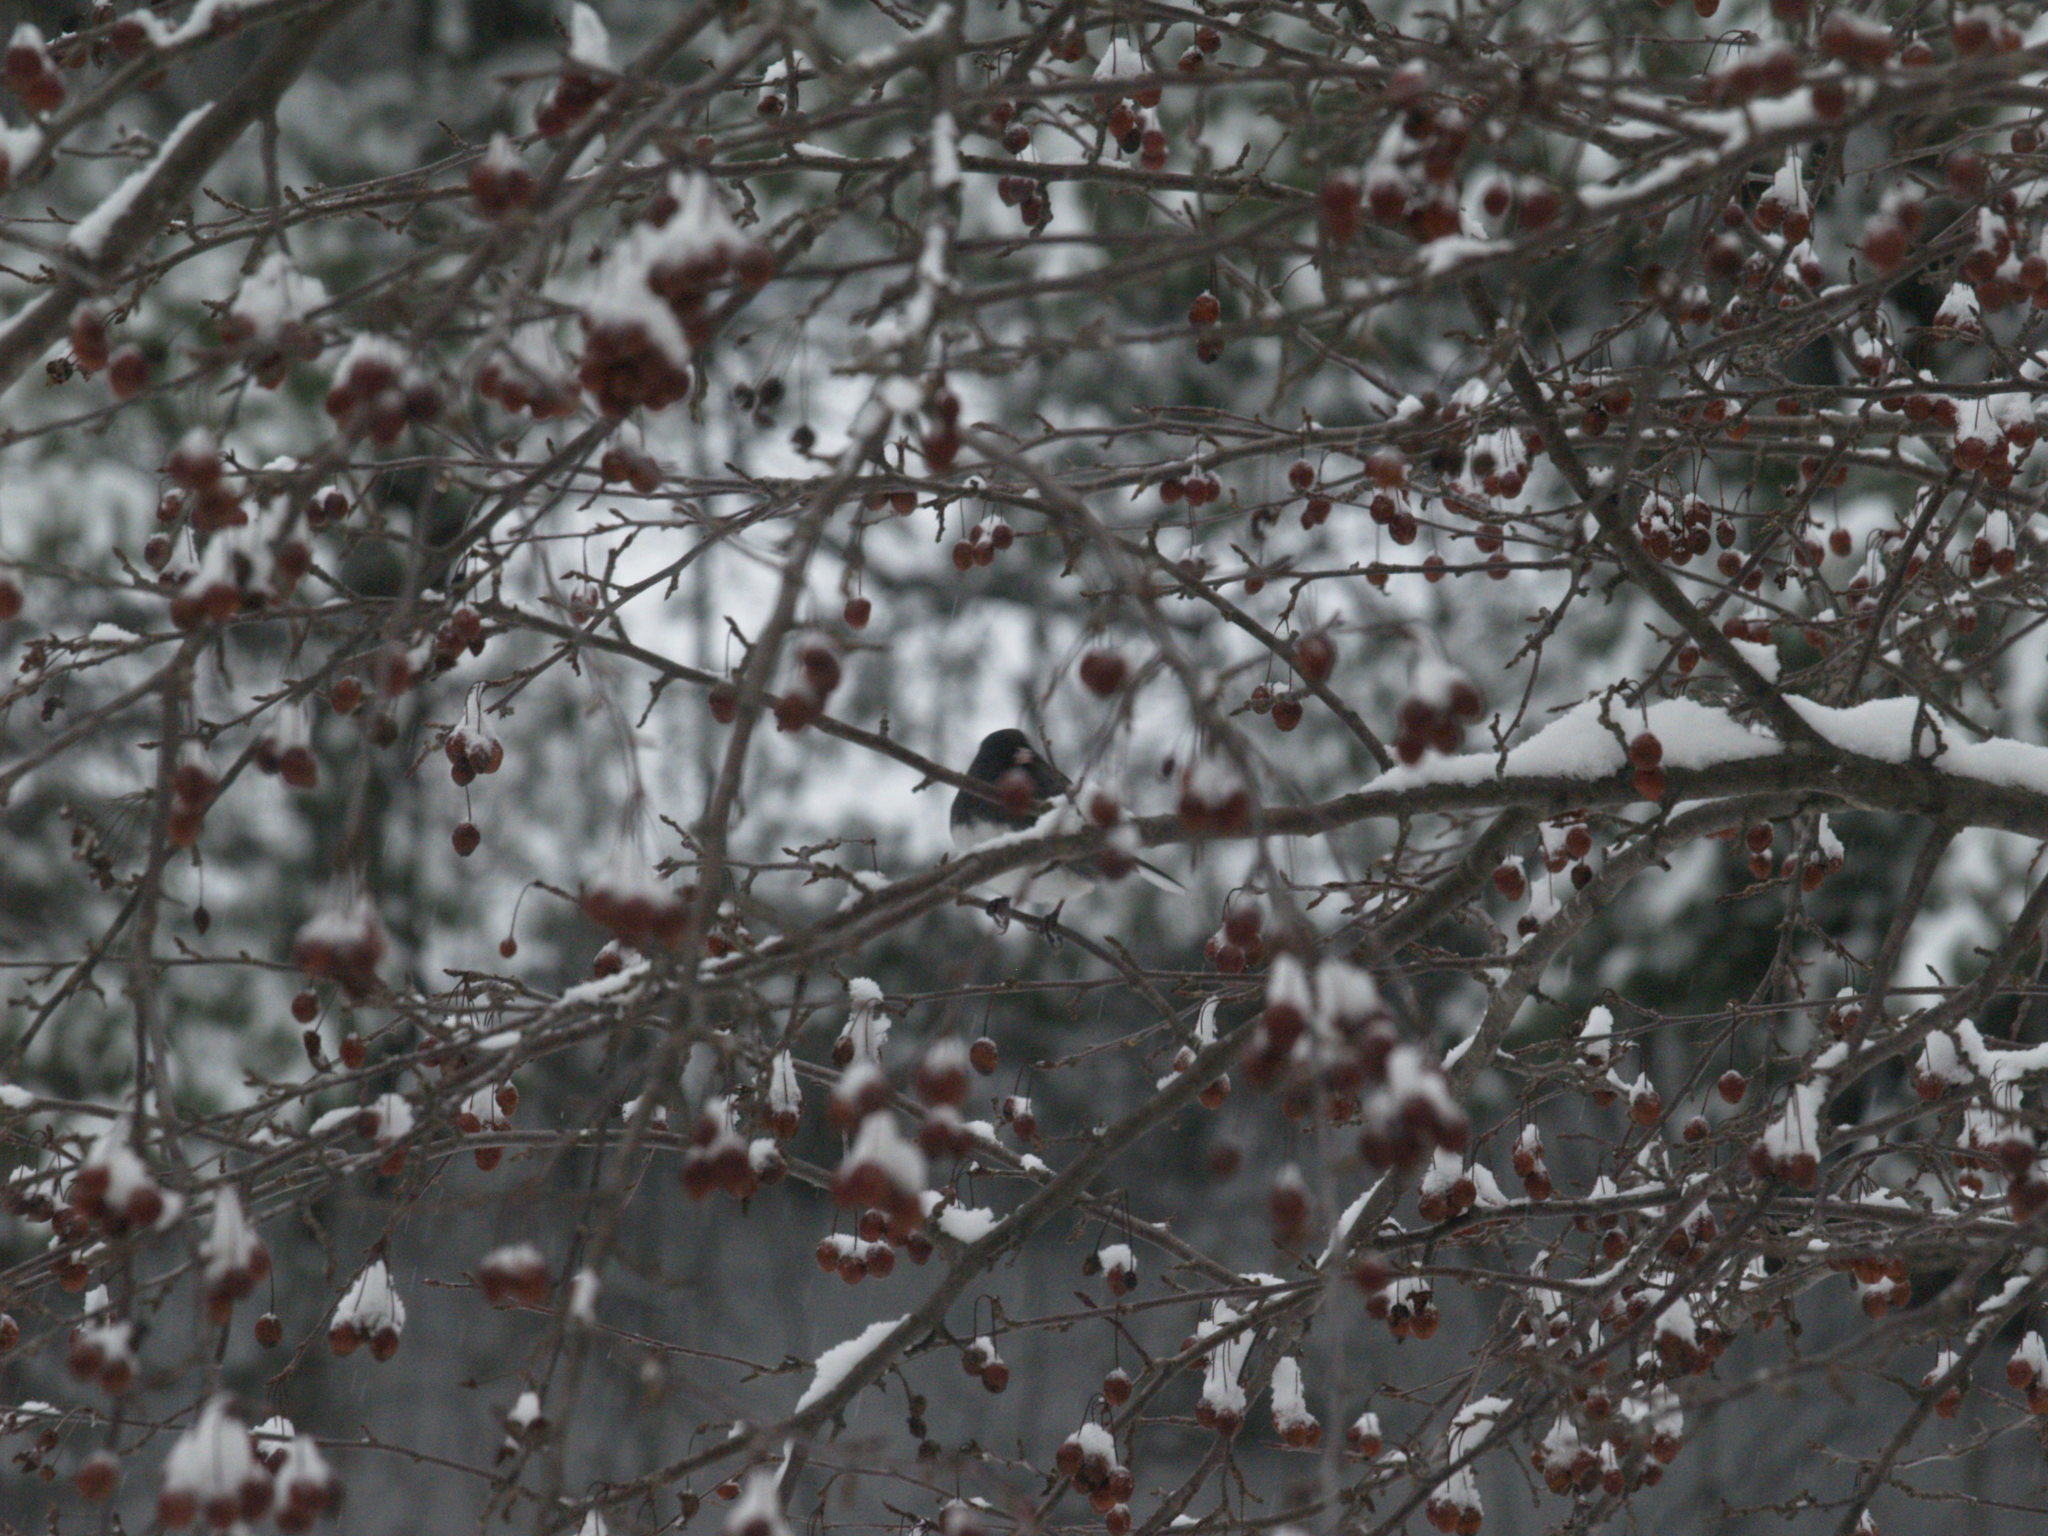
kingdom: Animalia
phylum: Chordata
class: Aves
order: Passeriformes
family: Passerellidae
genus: Junco
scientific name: Junco hyemalis
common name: Dark-eyed junco
